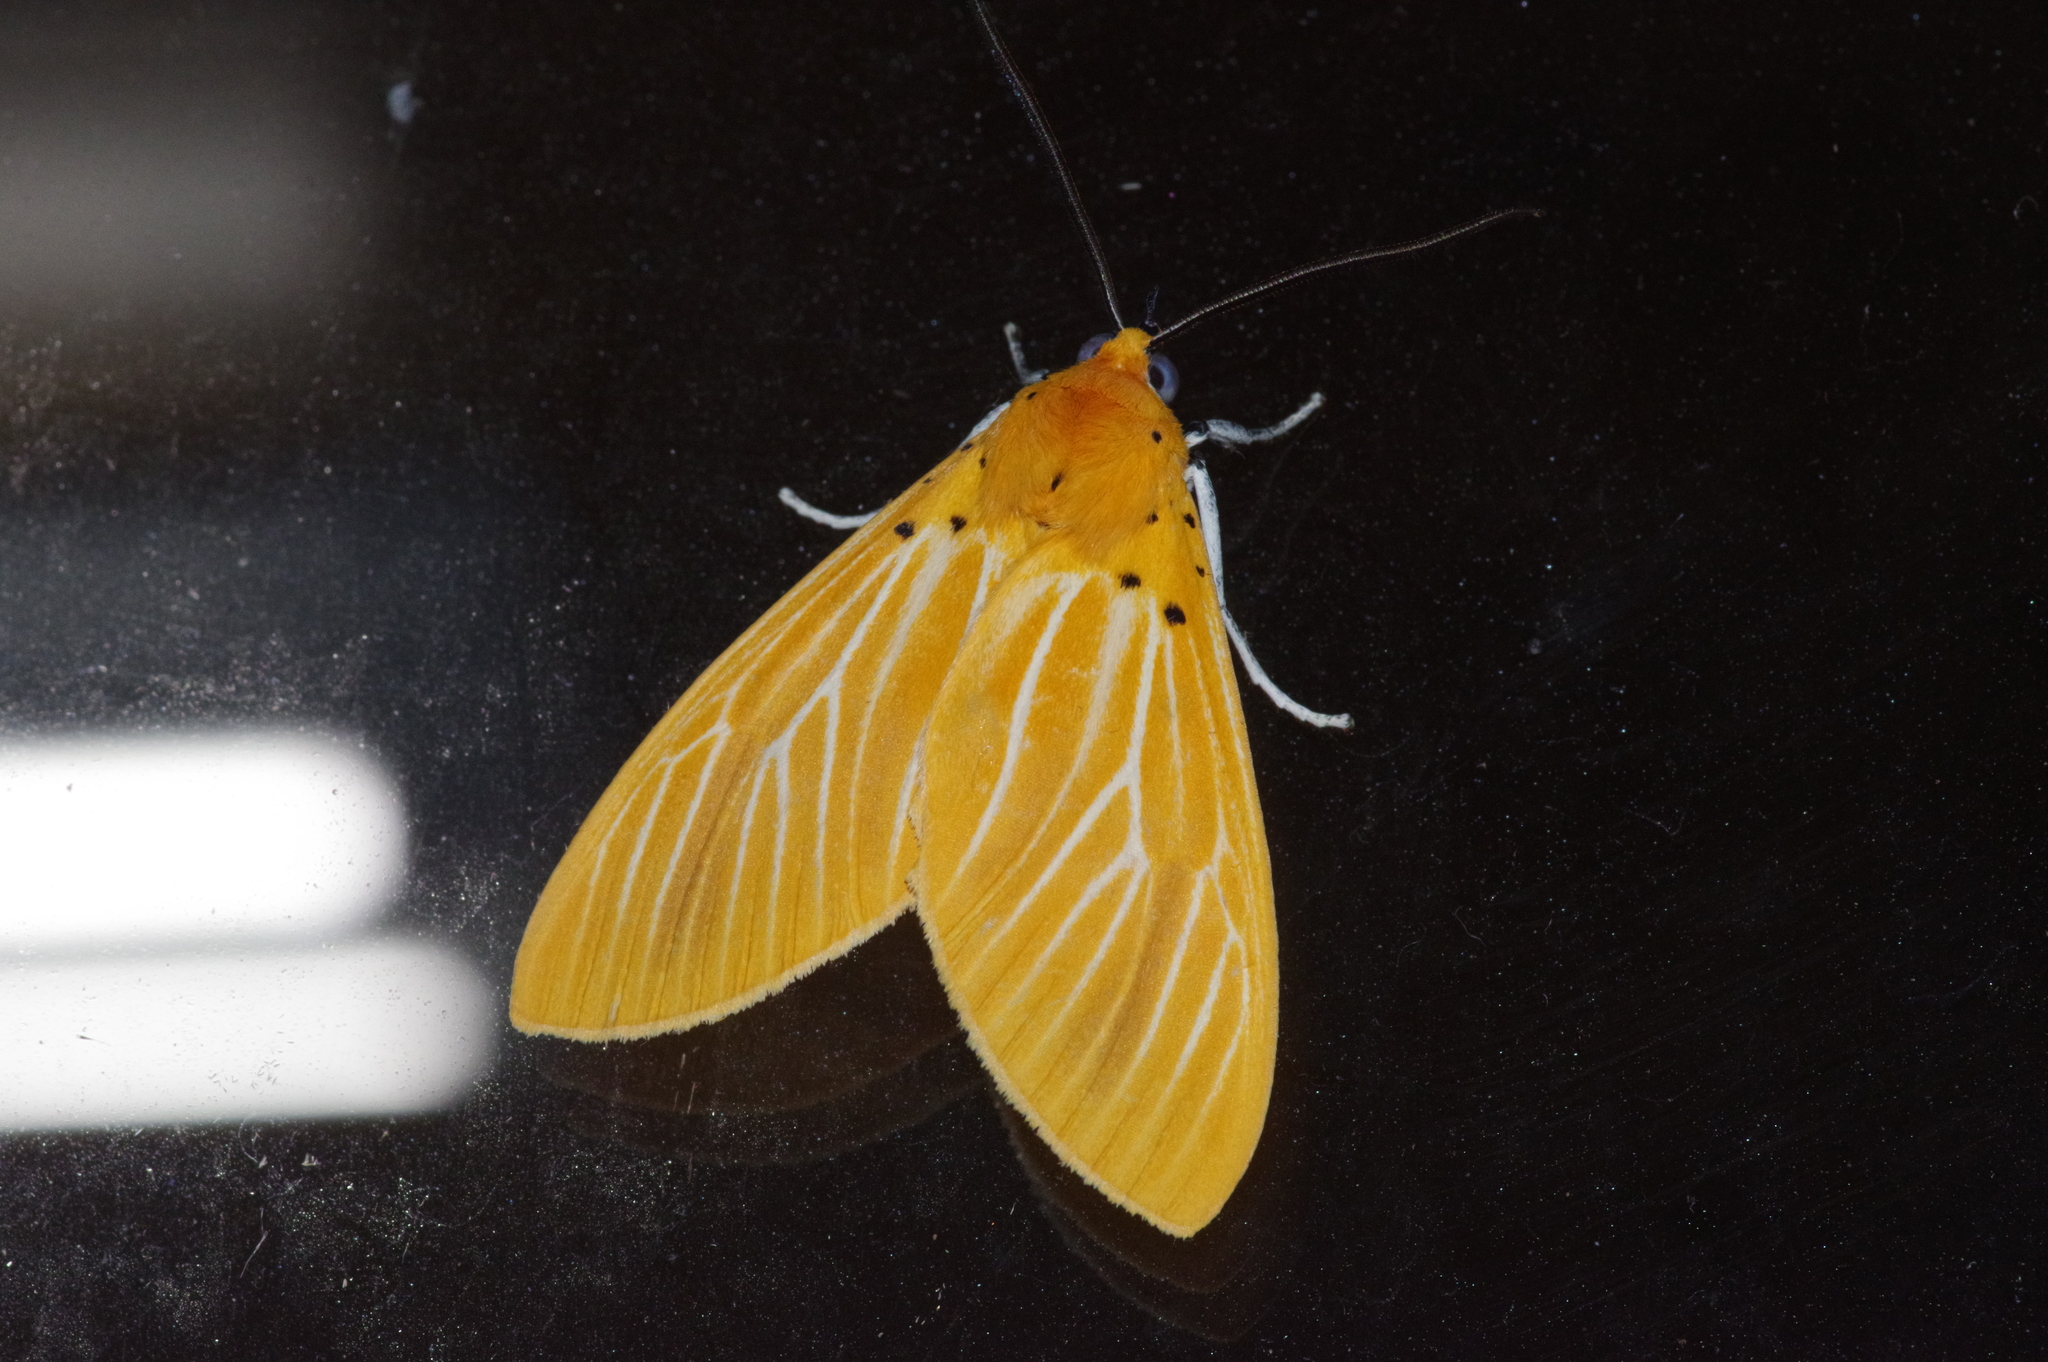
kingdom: Animalia
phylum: Arthropoda
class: Insecta
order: Lepidoptera
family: Erebidae
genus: Asota
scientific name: Asota egens
